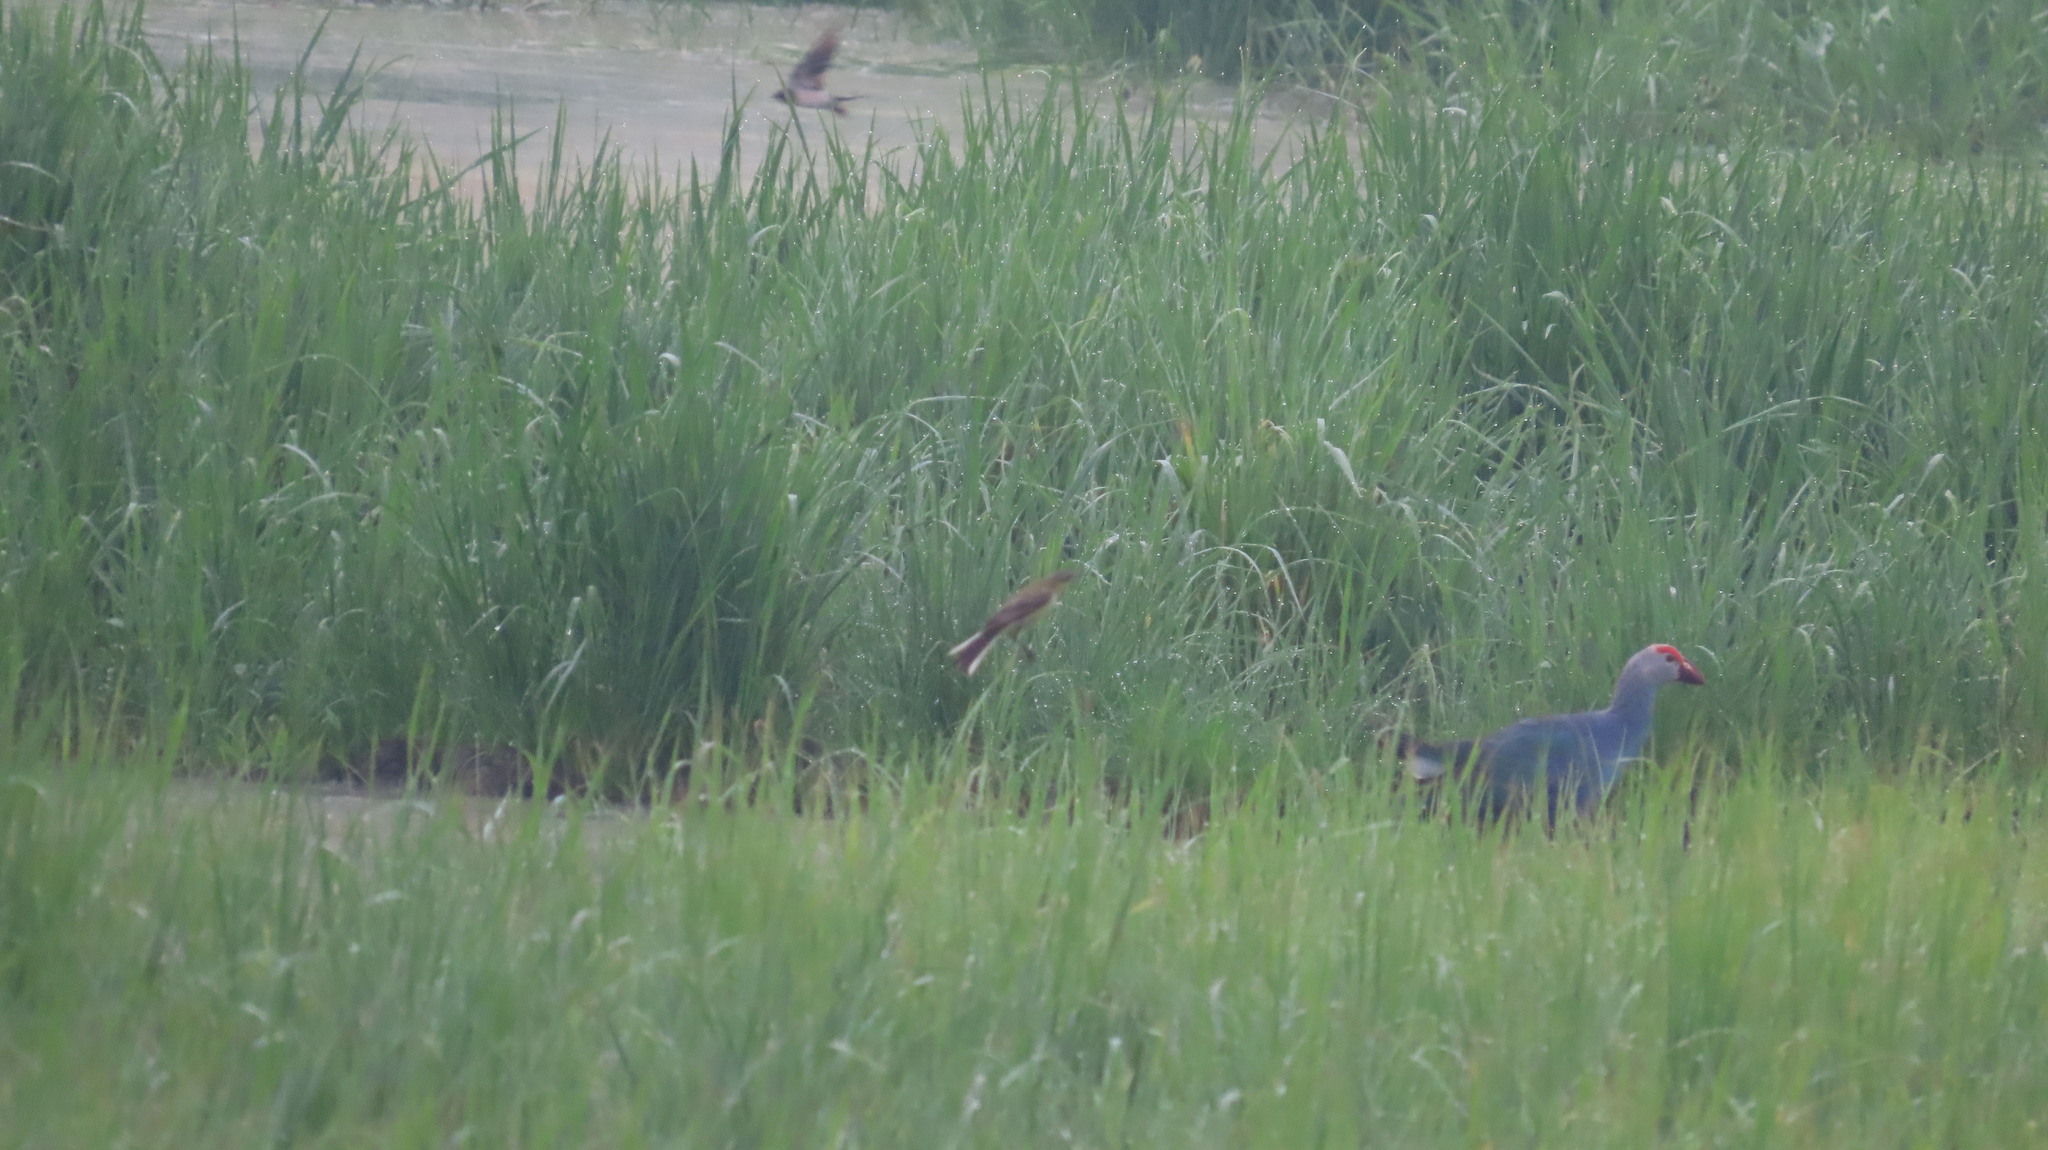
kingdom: Animalia
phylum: Chordata
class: Aves
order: Gruiformes
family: Rallidae
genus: Porphyrio
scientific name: Porphyrio porphyrio
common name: Purple swamphen
